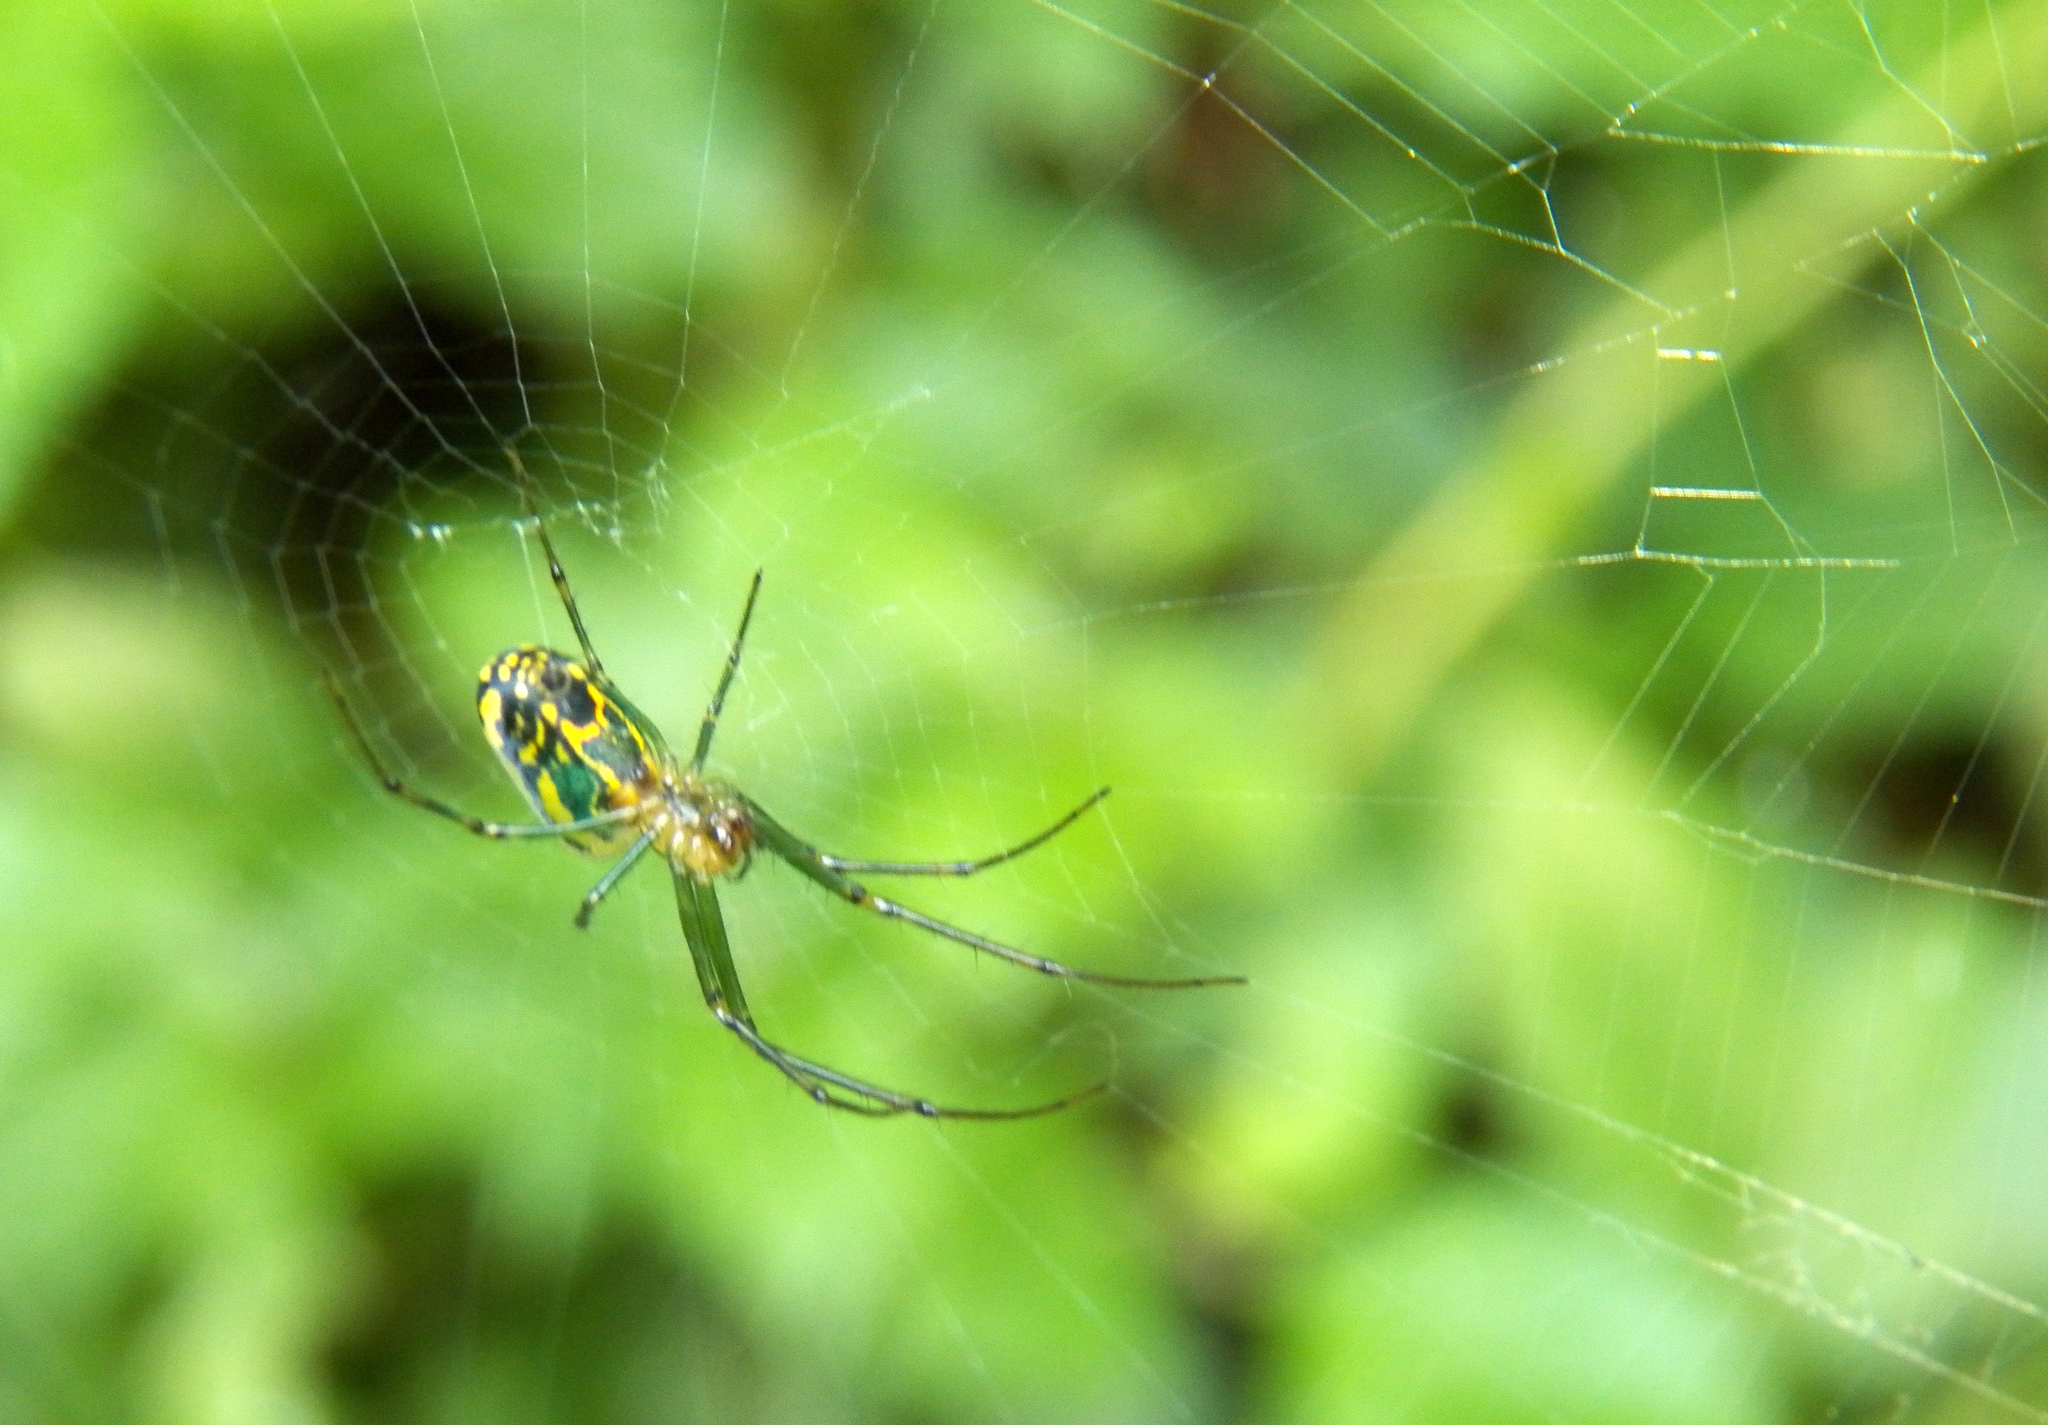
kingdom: Animalia
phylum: Arthropoda
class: Arachnida
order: Araneae
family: Tetragnathidae
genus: Leucauge
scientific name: Leucauge venusta
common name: Longjawed orb weavers
